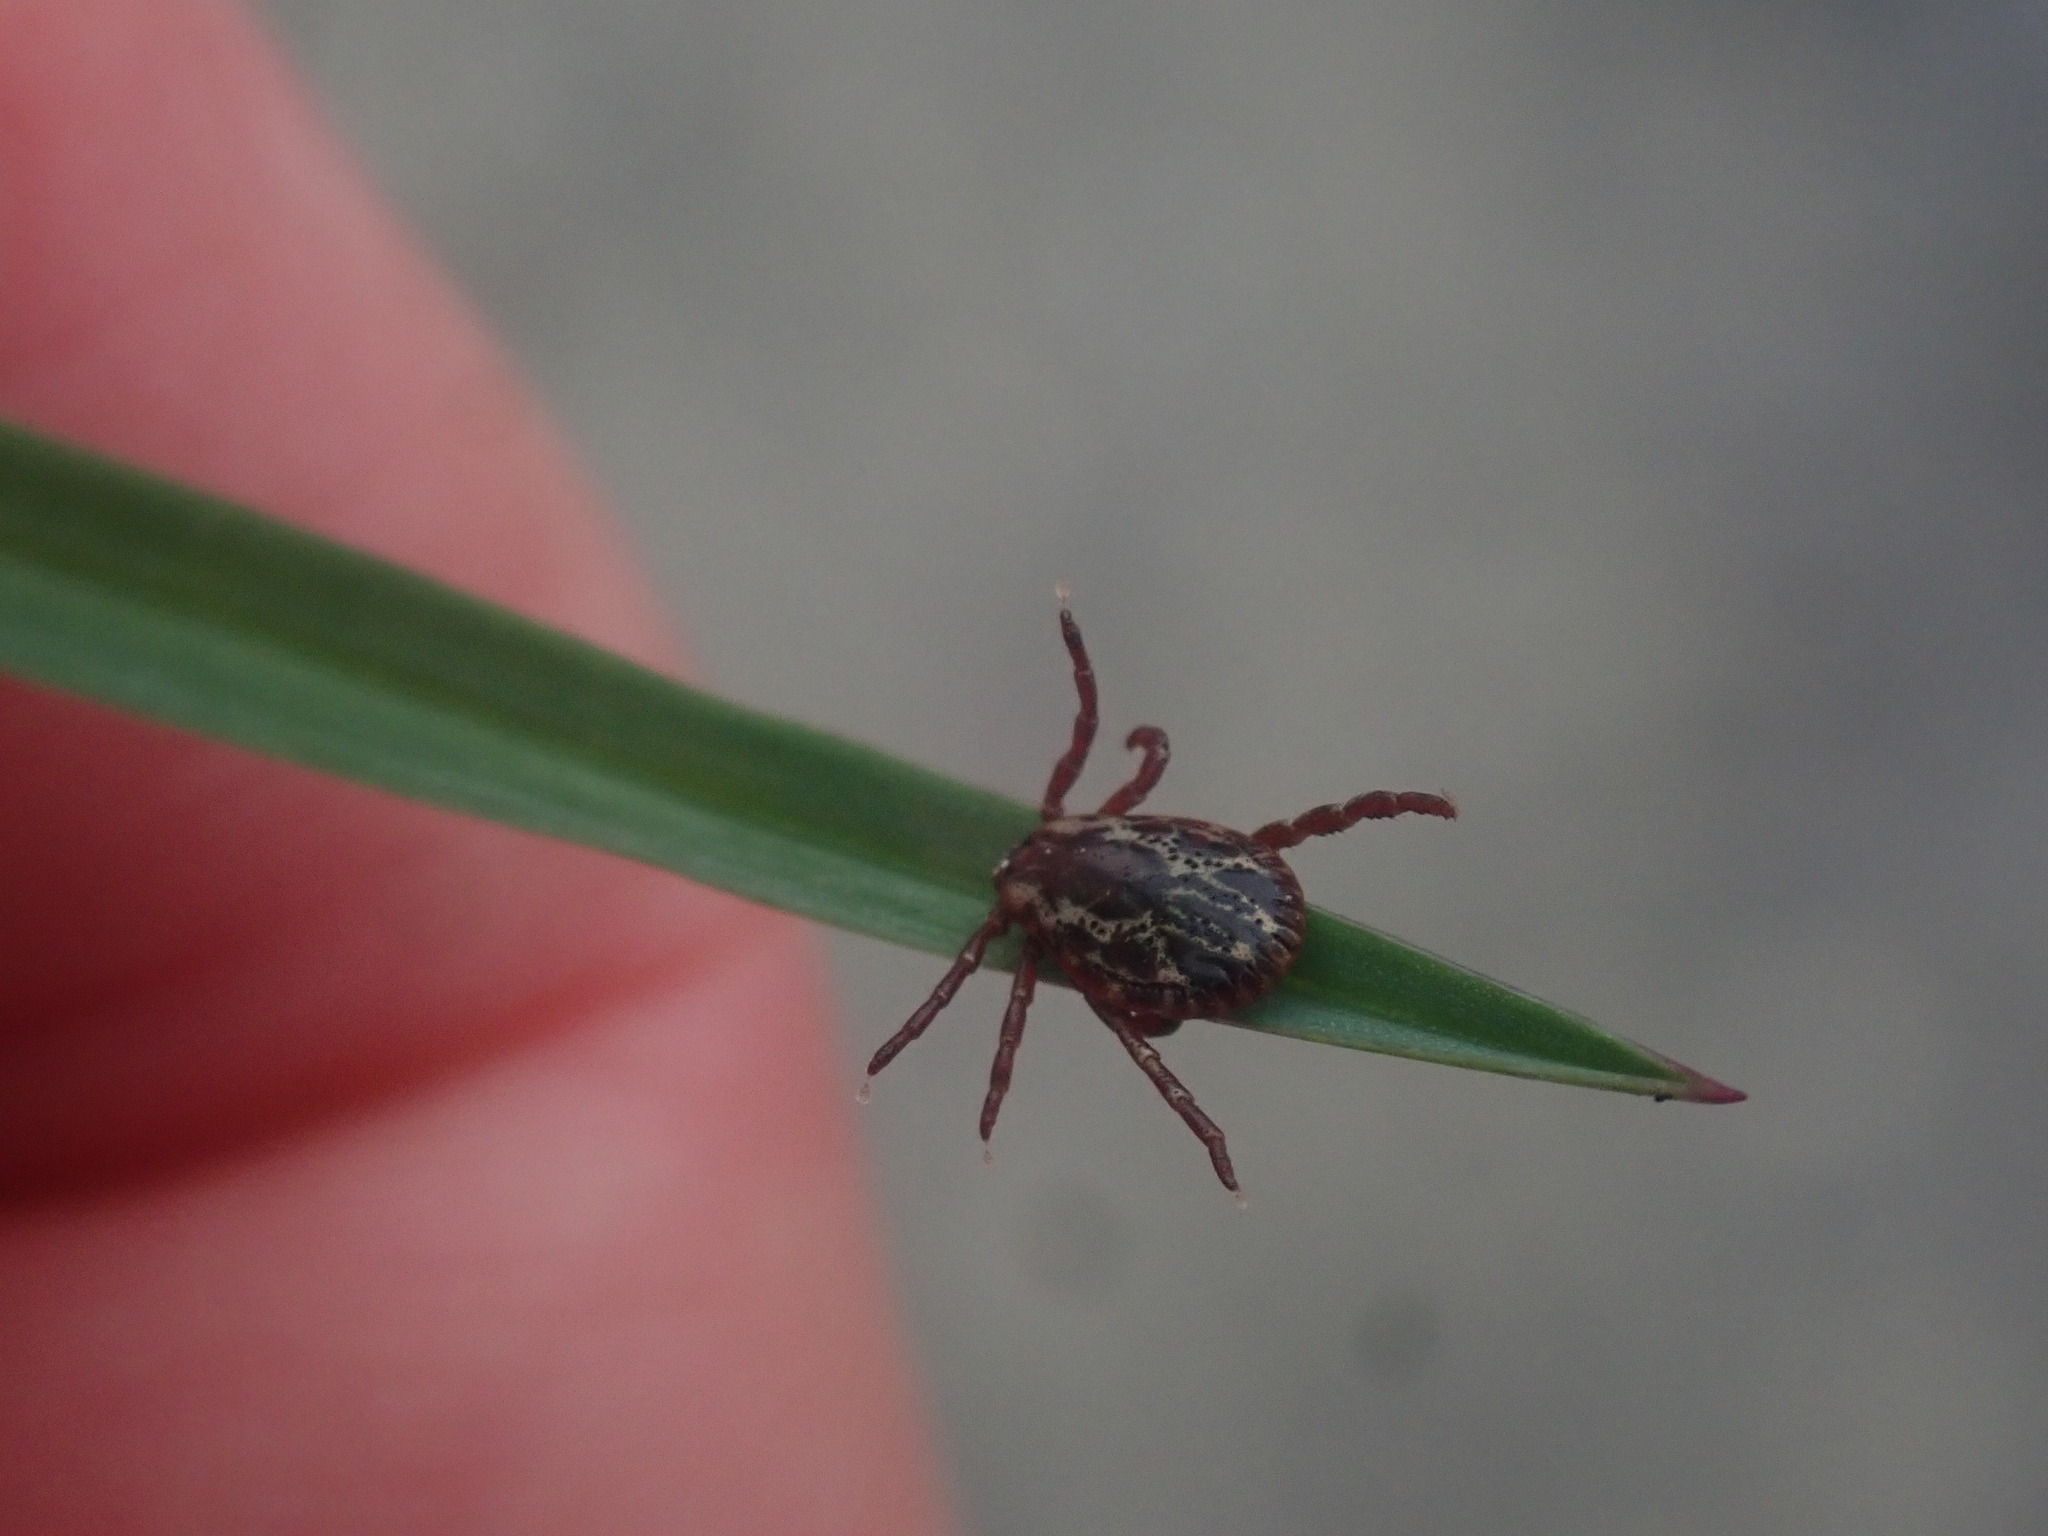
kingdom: Animalia
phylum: Arthropoda
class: Arachnida
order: Ixodida
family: Ixodidae
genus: Dermacentor
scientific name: Dermacentor variabilis
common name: American dog tick
